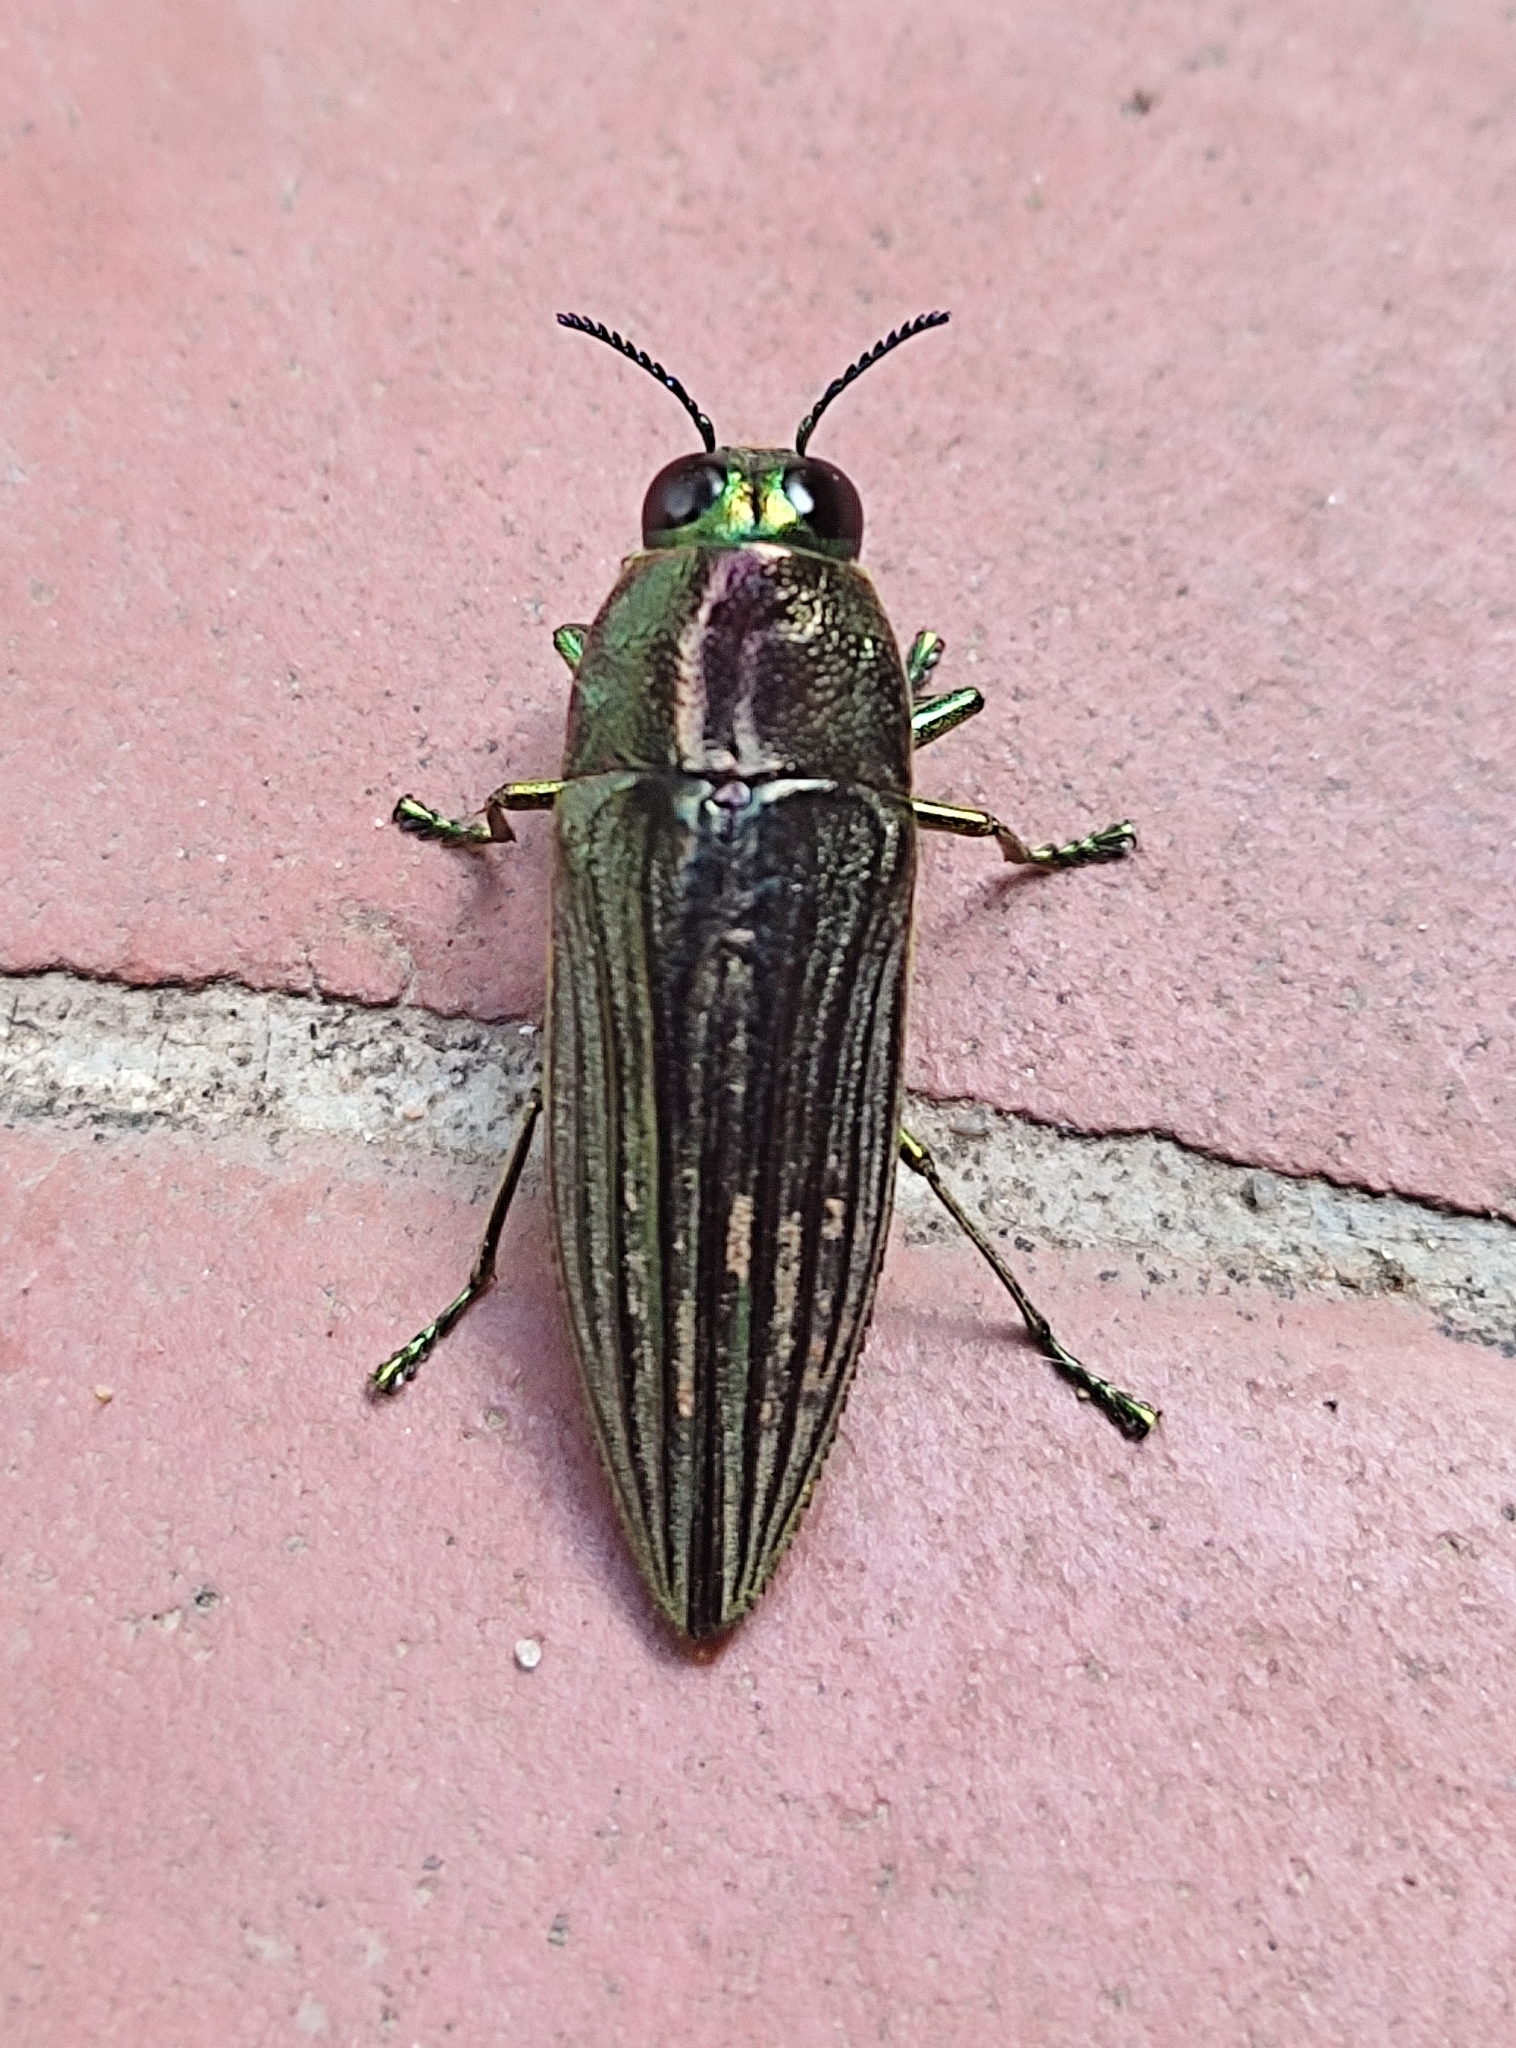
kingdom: Animalia
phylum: Arthropoda
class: Insecta
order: Coleoptera
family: Buprestidae
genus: Pelecopselaphus
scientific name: Pelecopselaphus blandus
